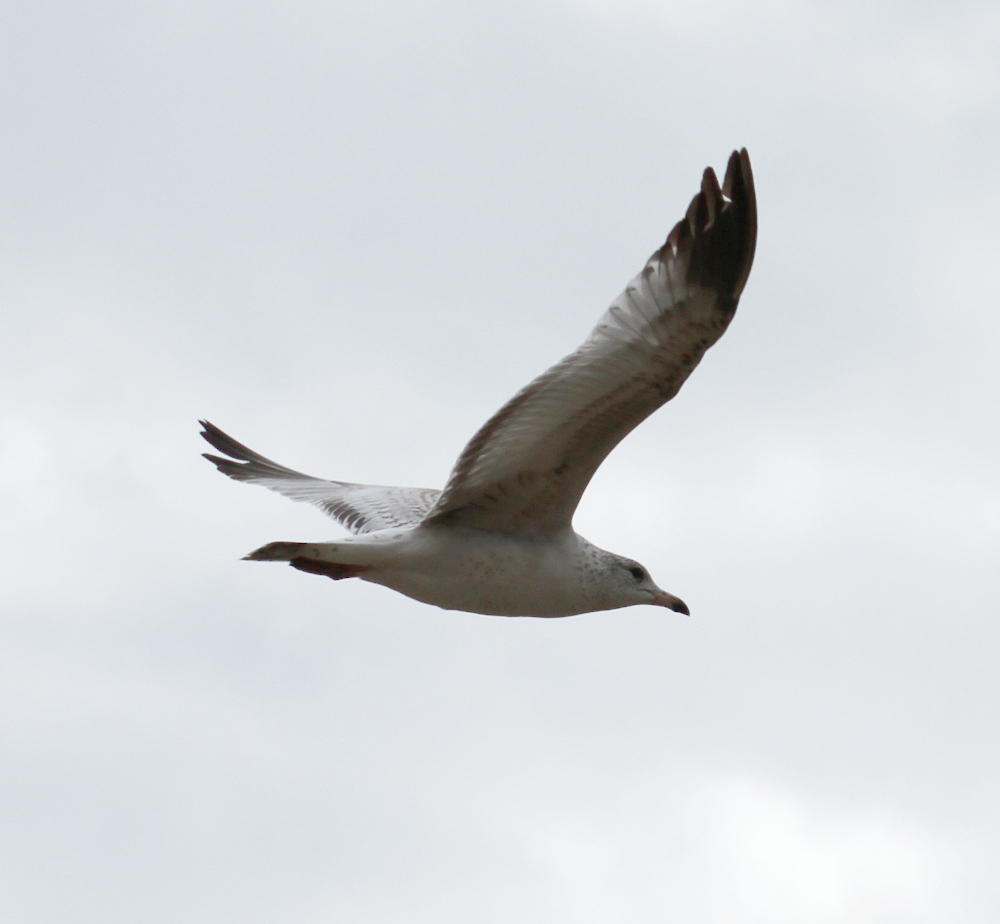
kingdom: Animalia
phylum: Chordata
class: Aves
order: Charadriiformes
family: Laridae
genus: Larus
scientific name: Larus delawarensis
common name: Ring-billed gull
